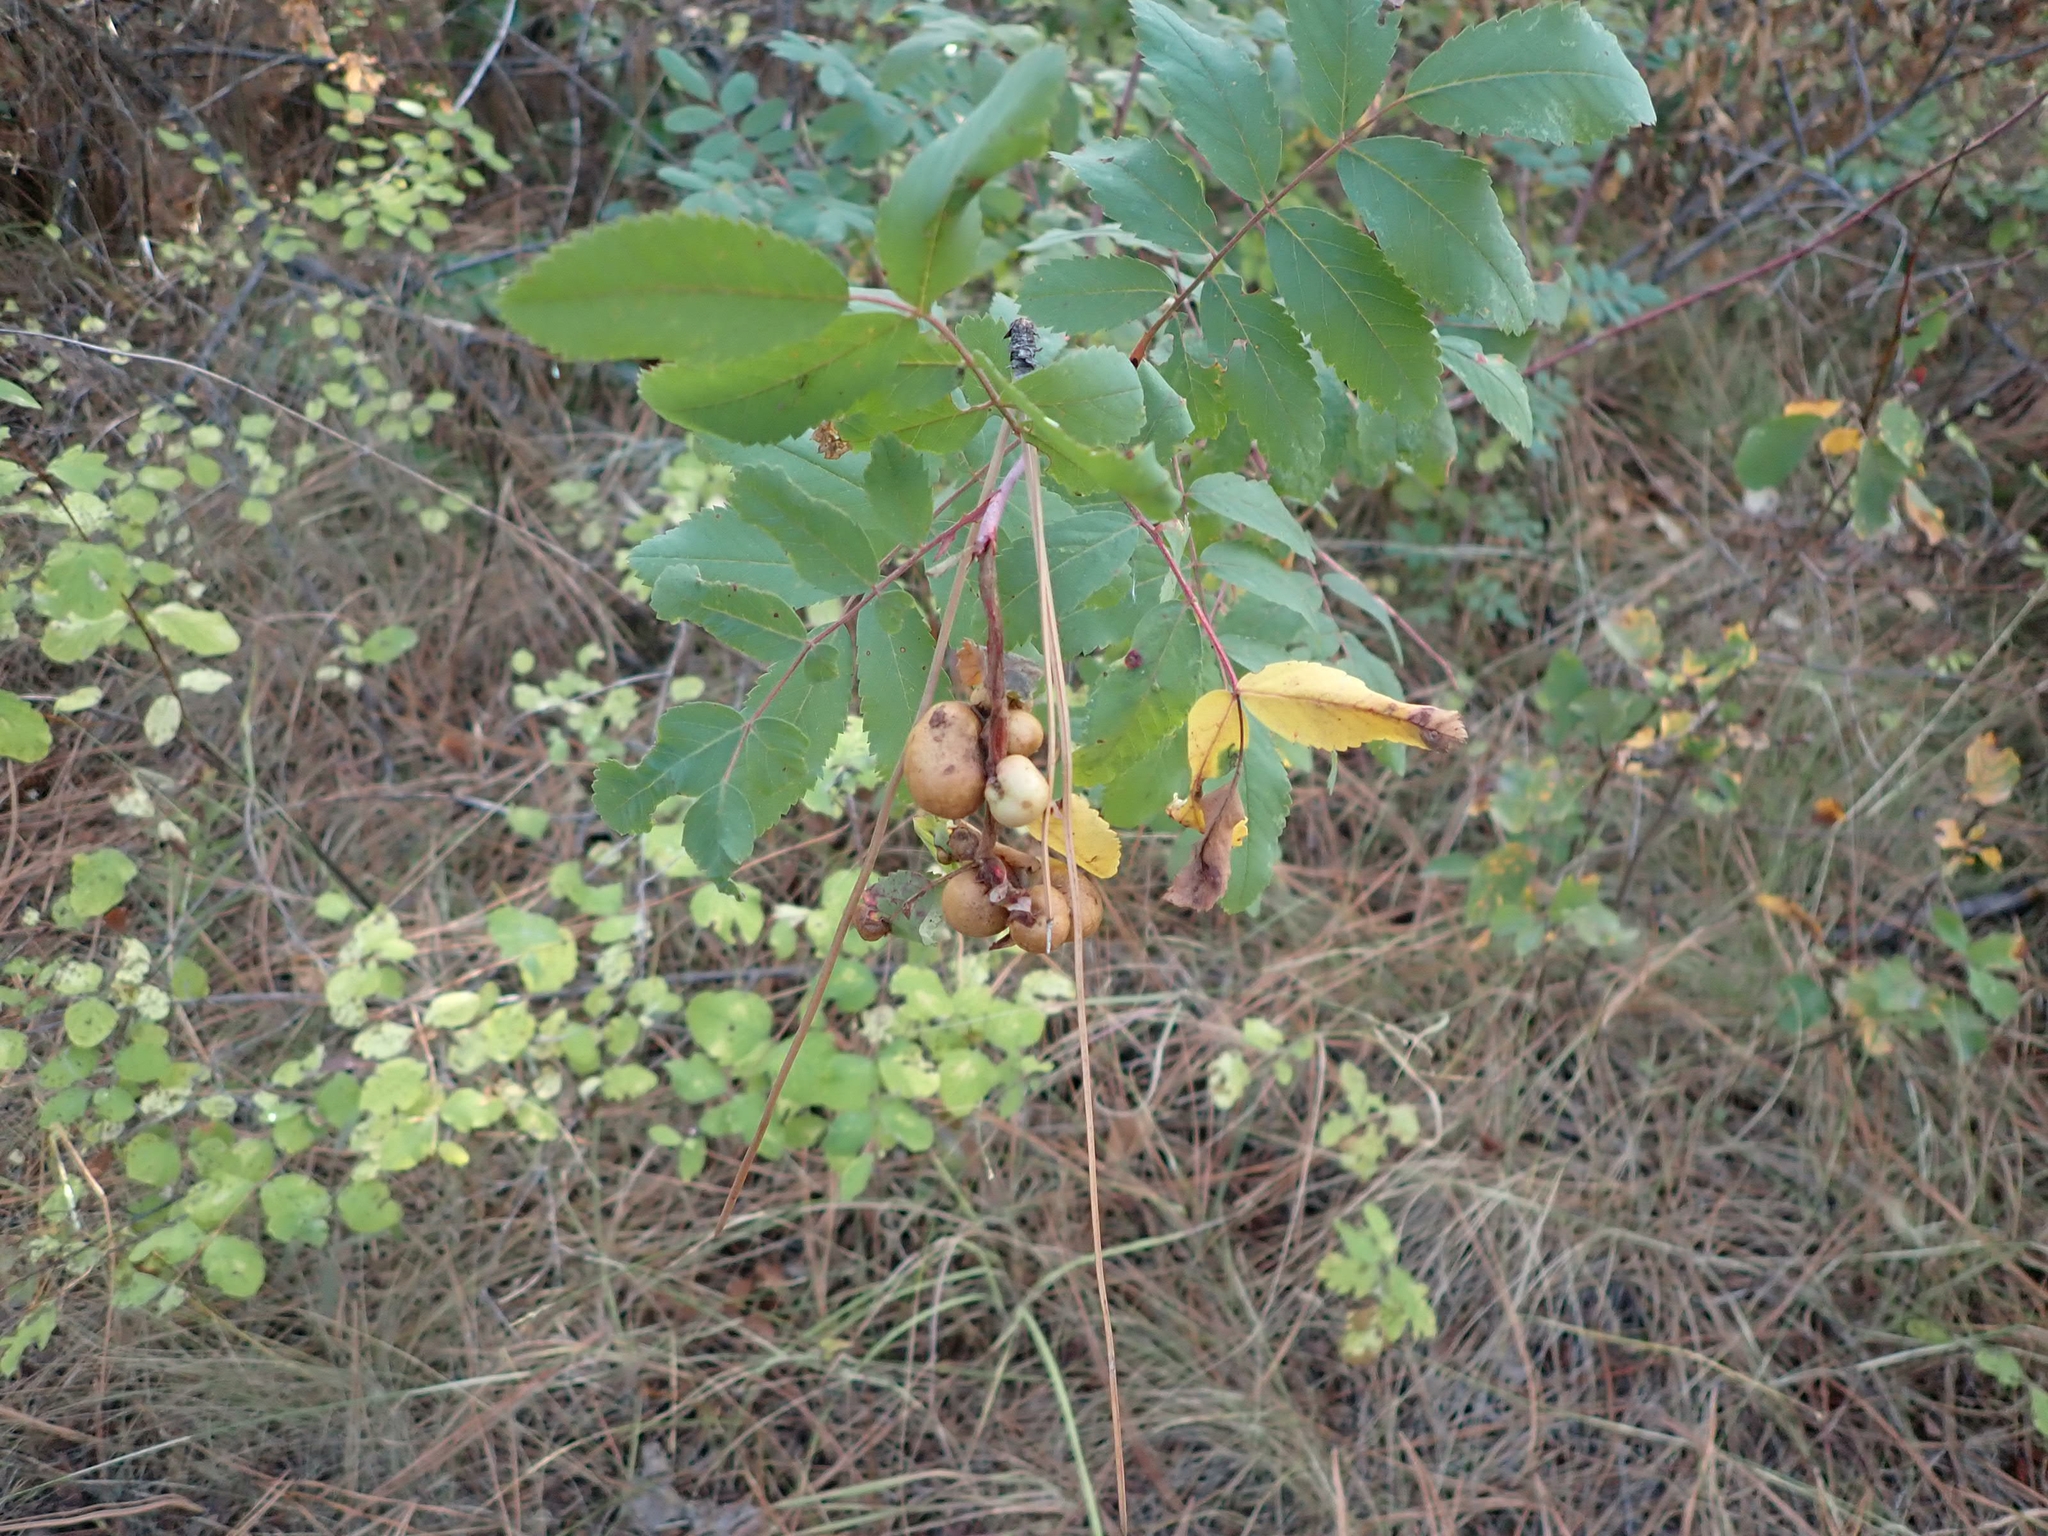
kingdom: Animalia
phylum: Arthropoda
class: Insecta
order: Hymenoptera
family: Cynipidae
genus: Diplolepis
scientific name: Diplolepis variabilis
